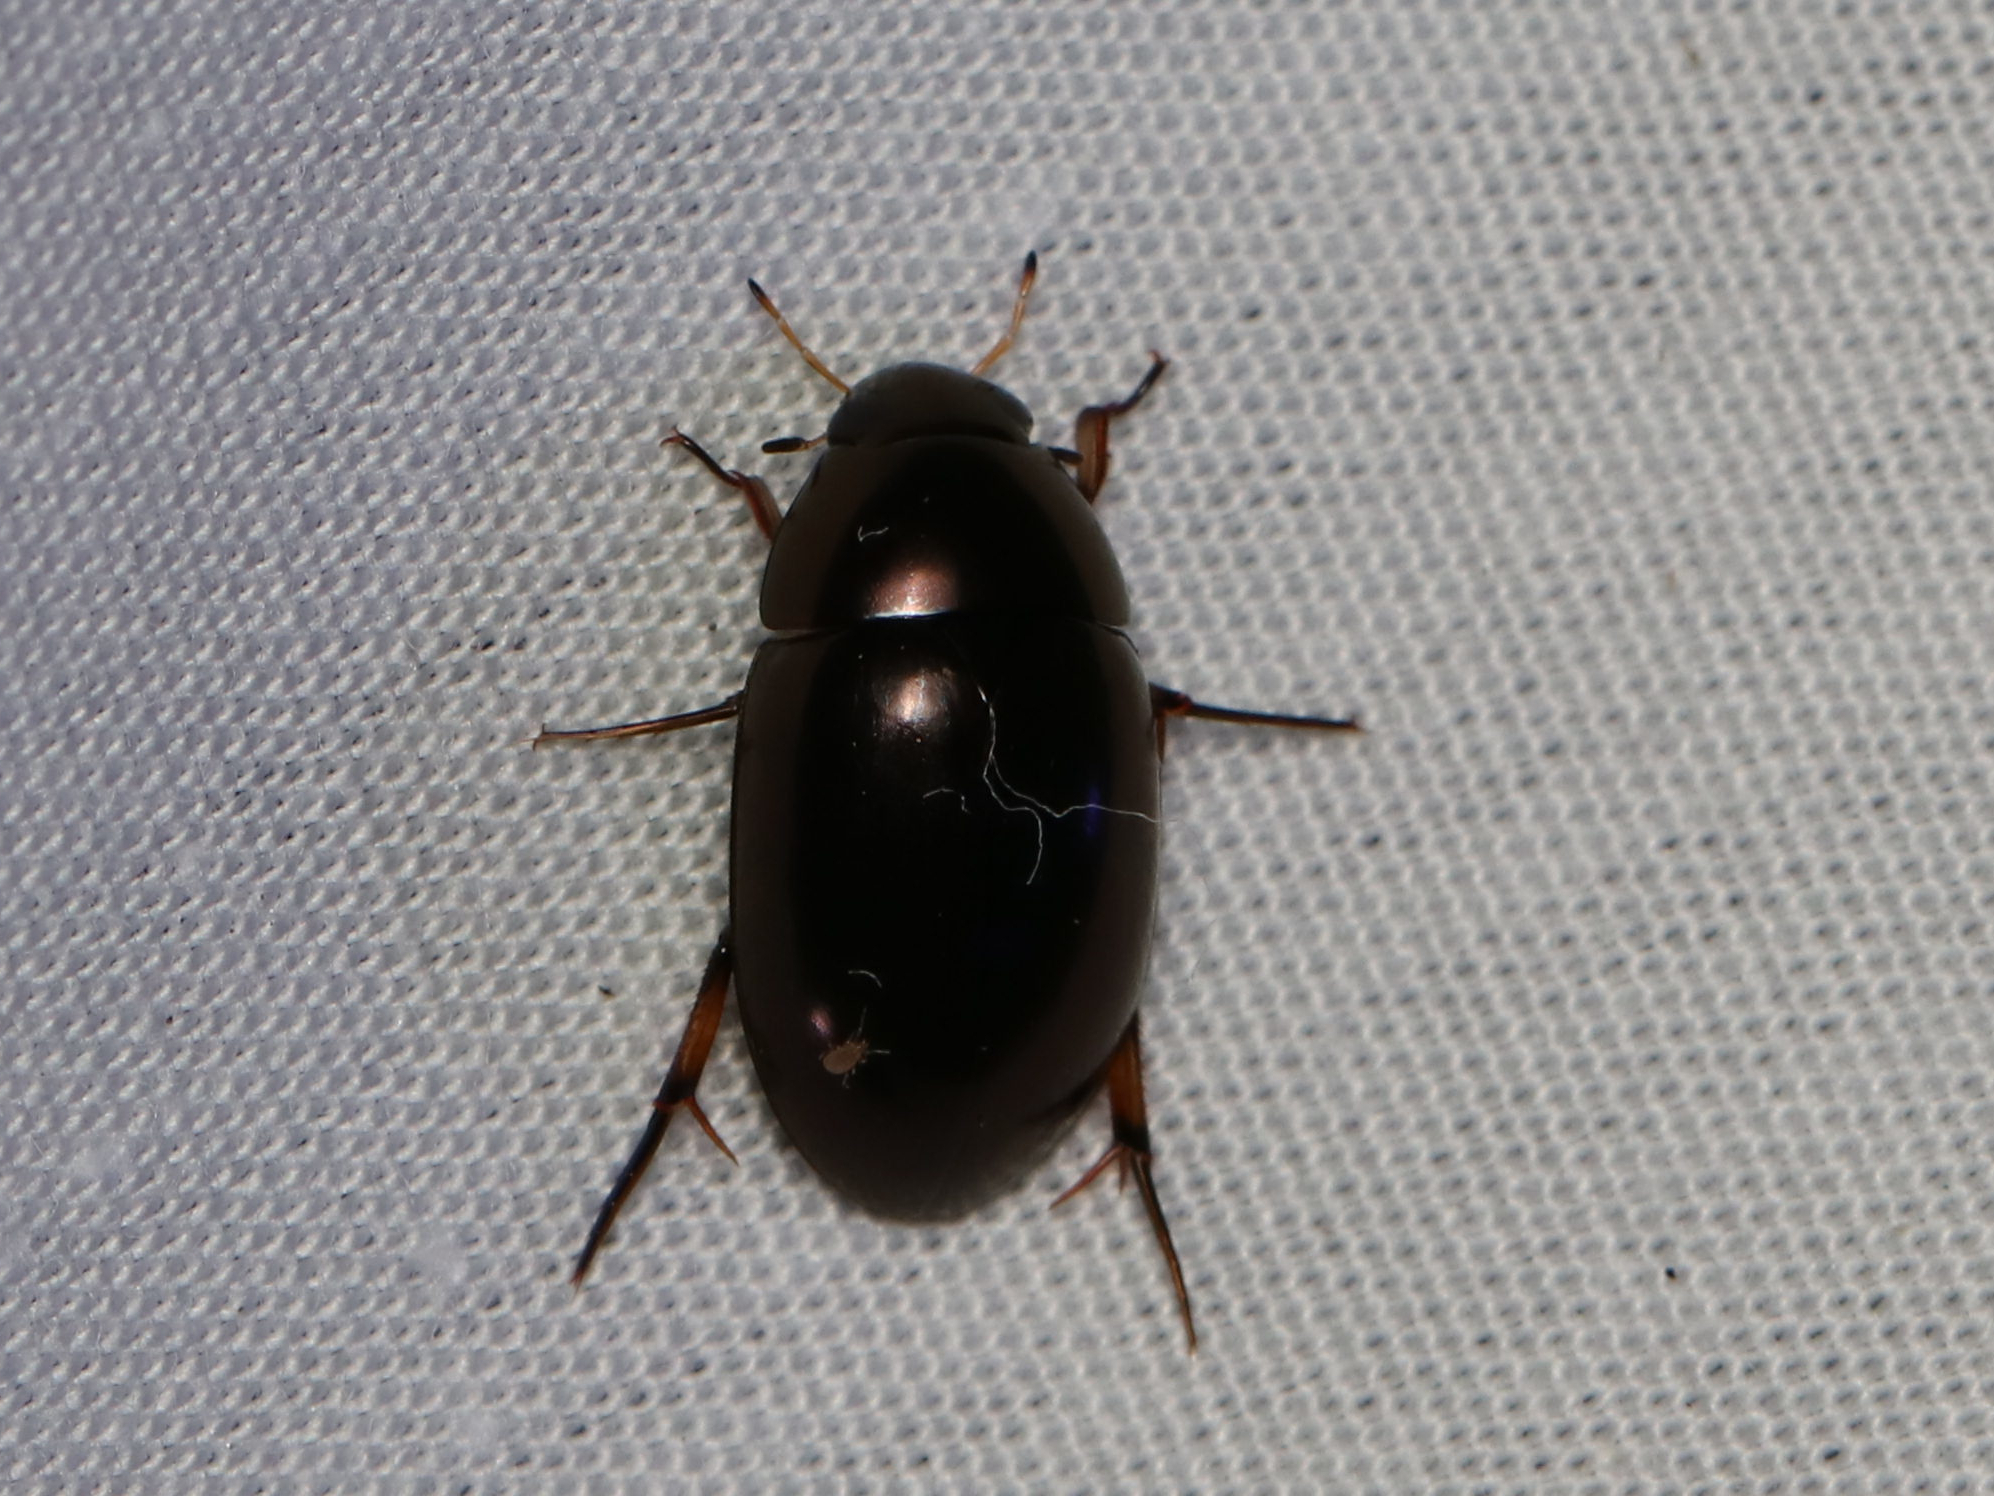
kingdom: Animalia
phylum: Arthropoda
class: Insecta
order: Coleoptera
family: Hydrophilidae
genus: Tropisternus
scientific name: Tropisternus
